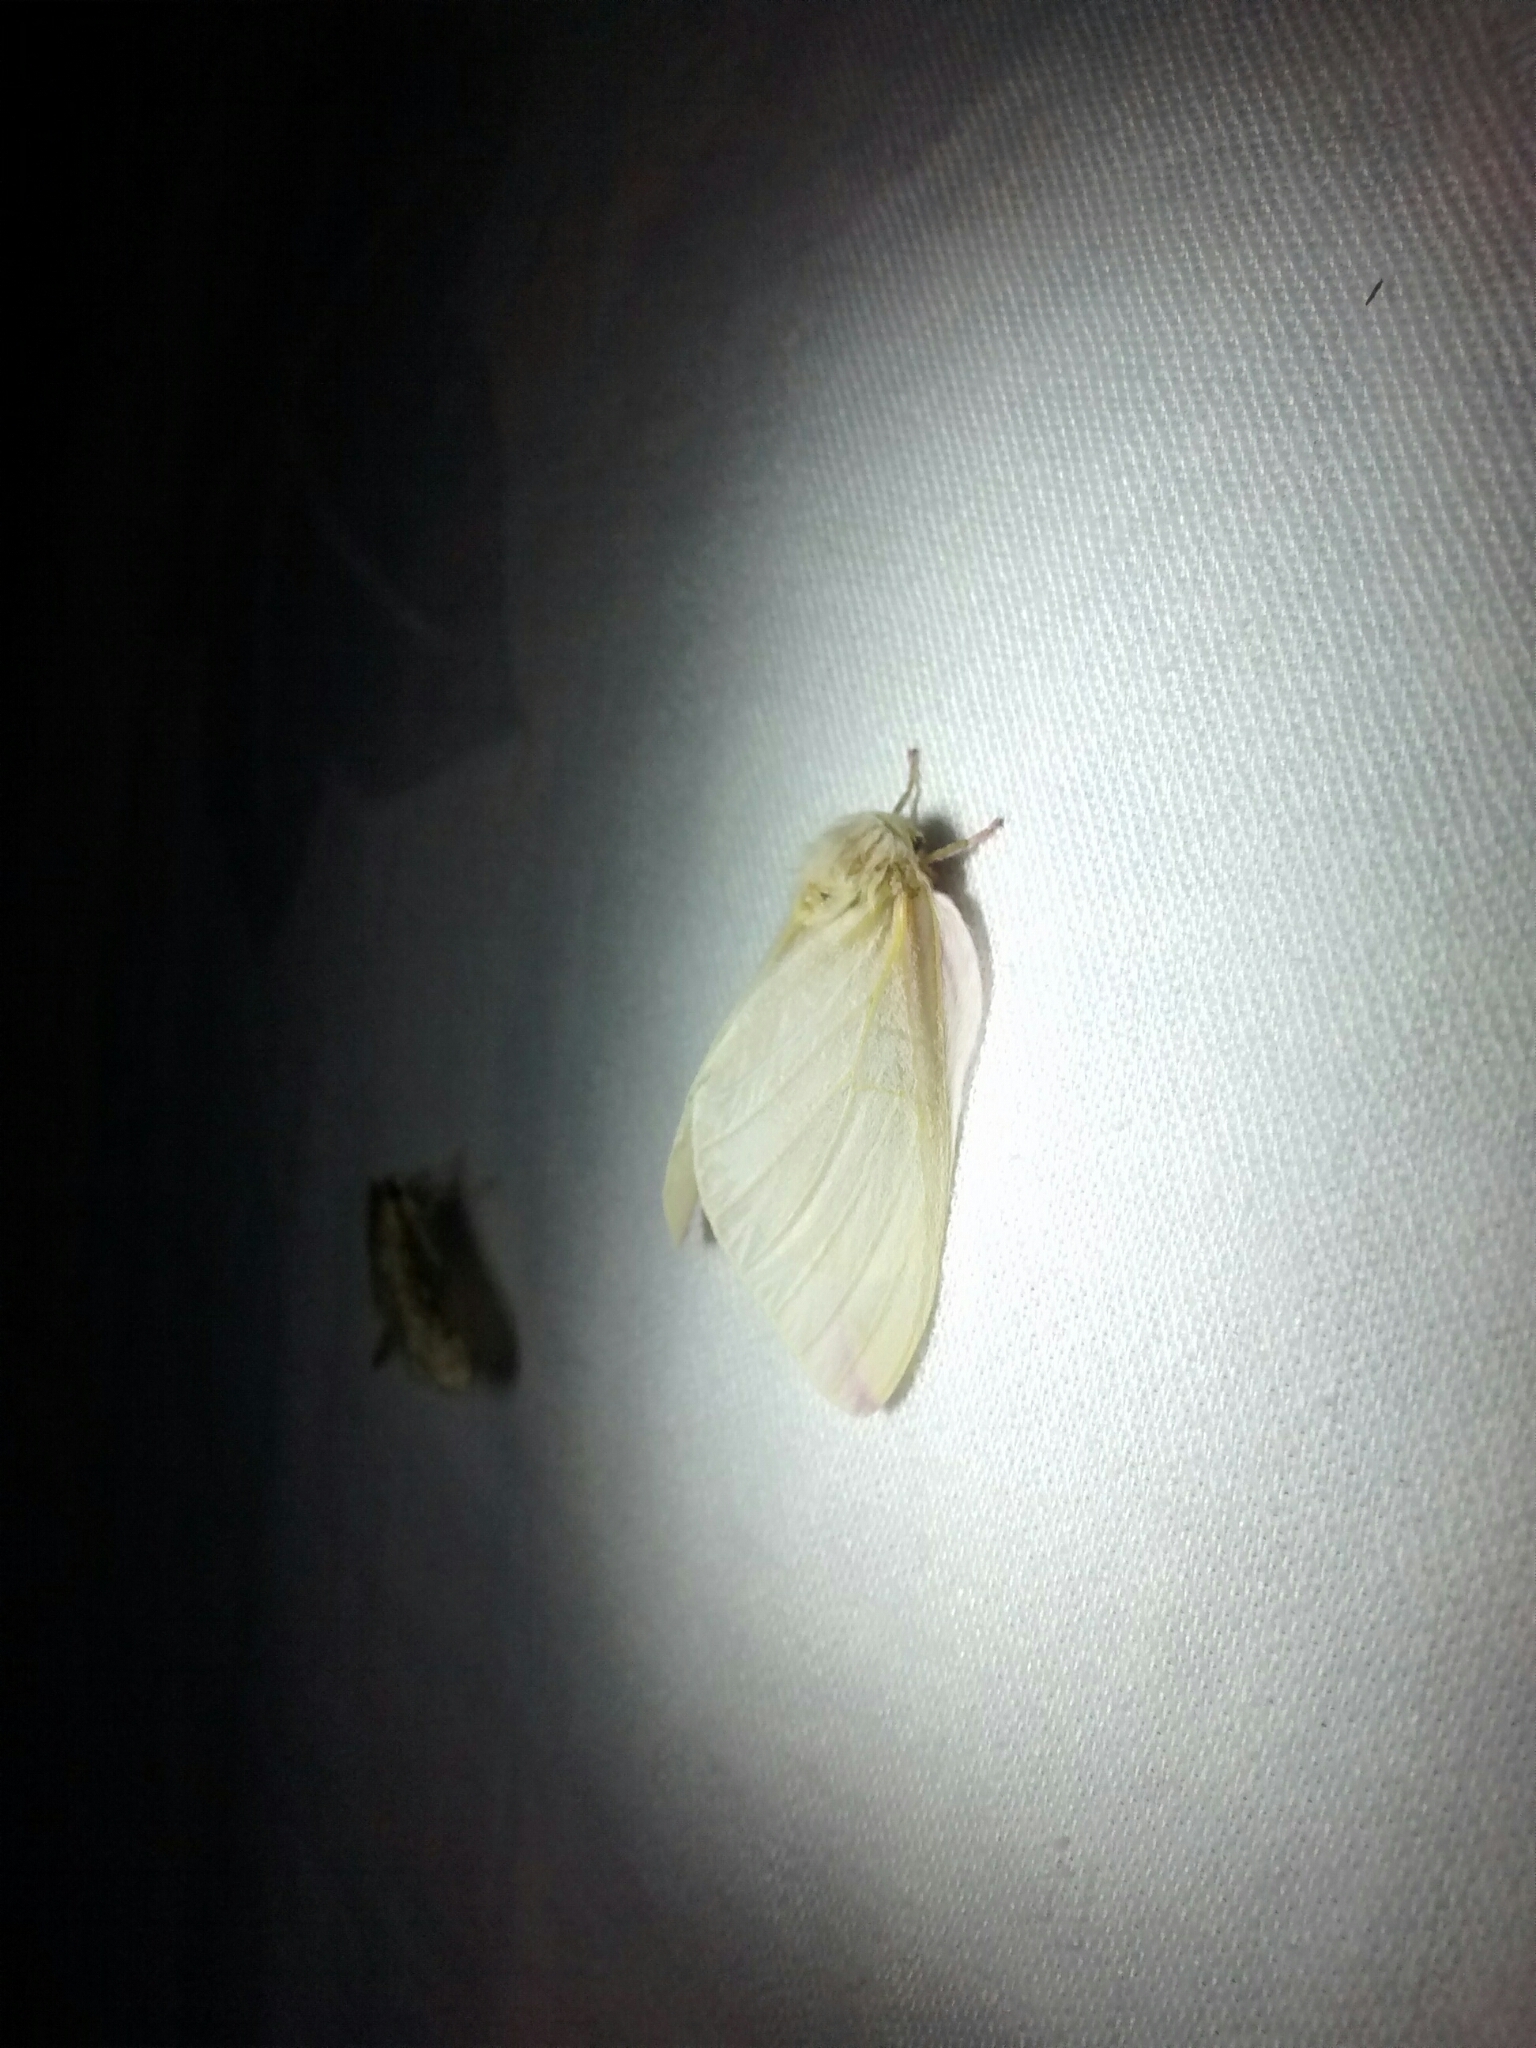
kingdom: Animalia
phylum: Arthropoda
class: Insecta
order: Lepidoptera
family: Saturniidae
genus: Dryocampa
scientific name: Dryocampa rubicunda
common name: Rosy maple moth
